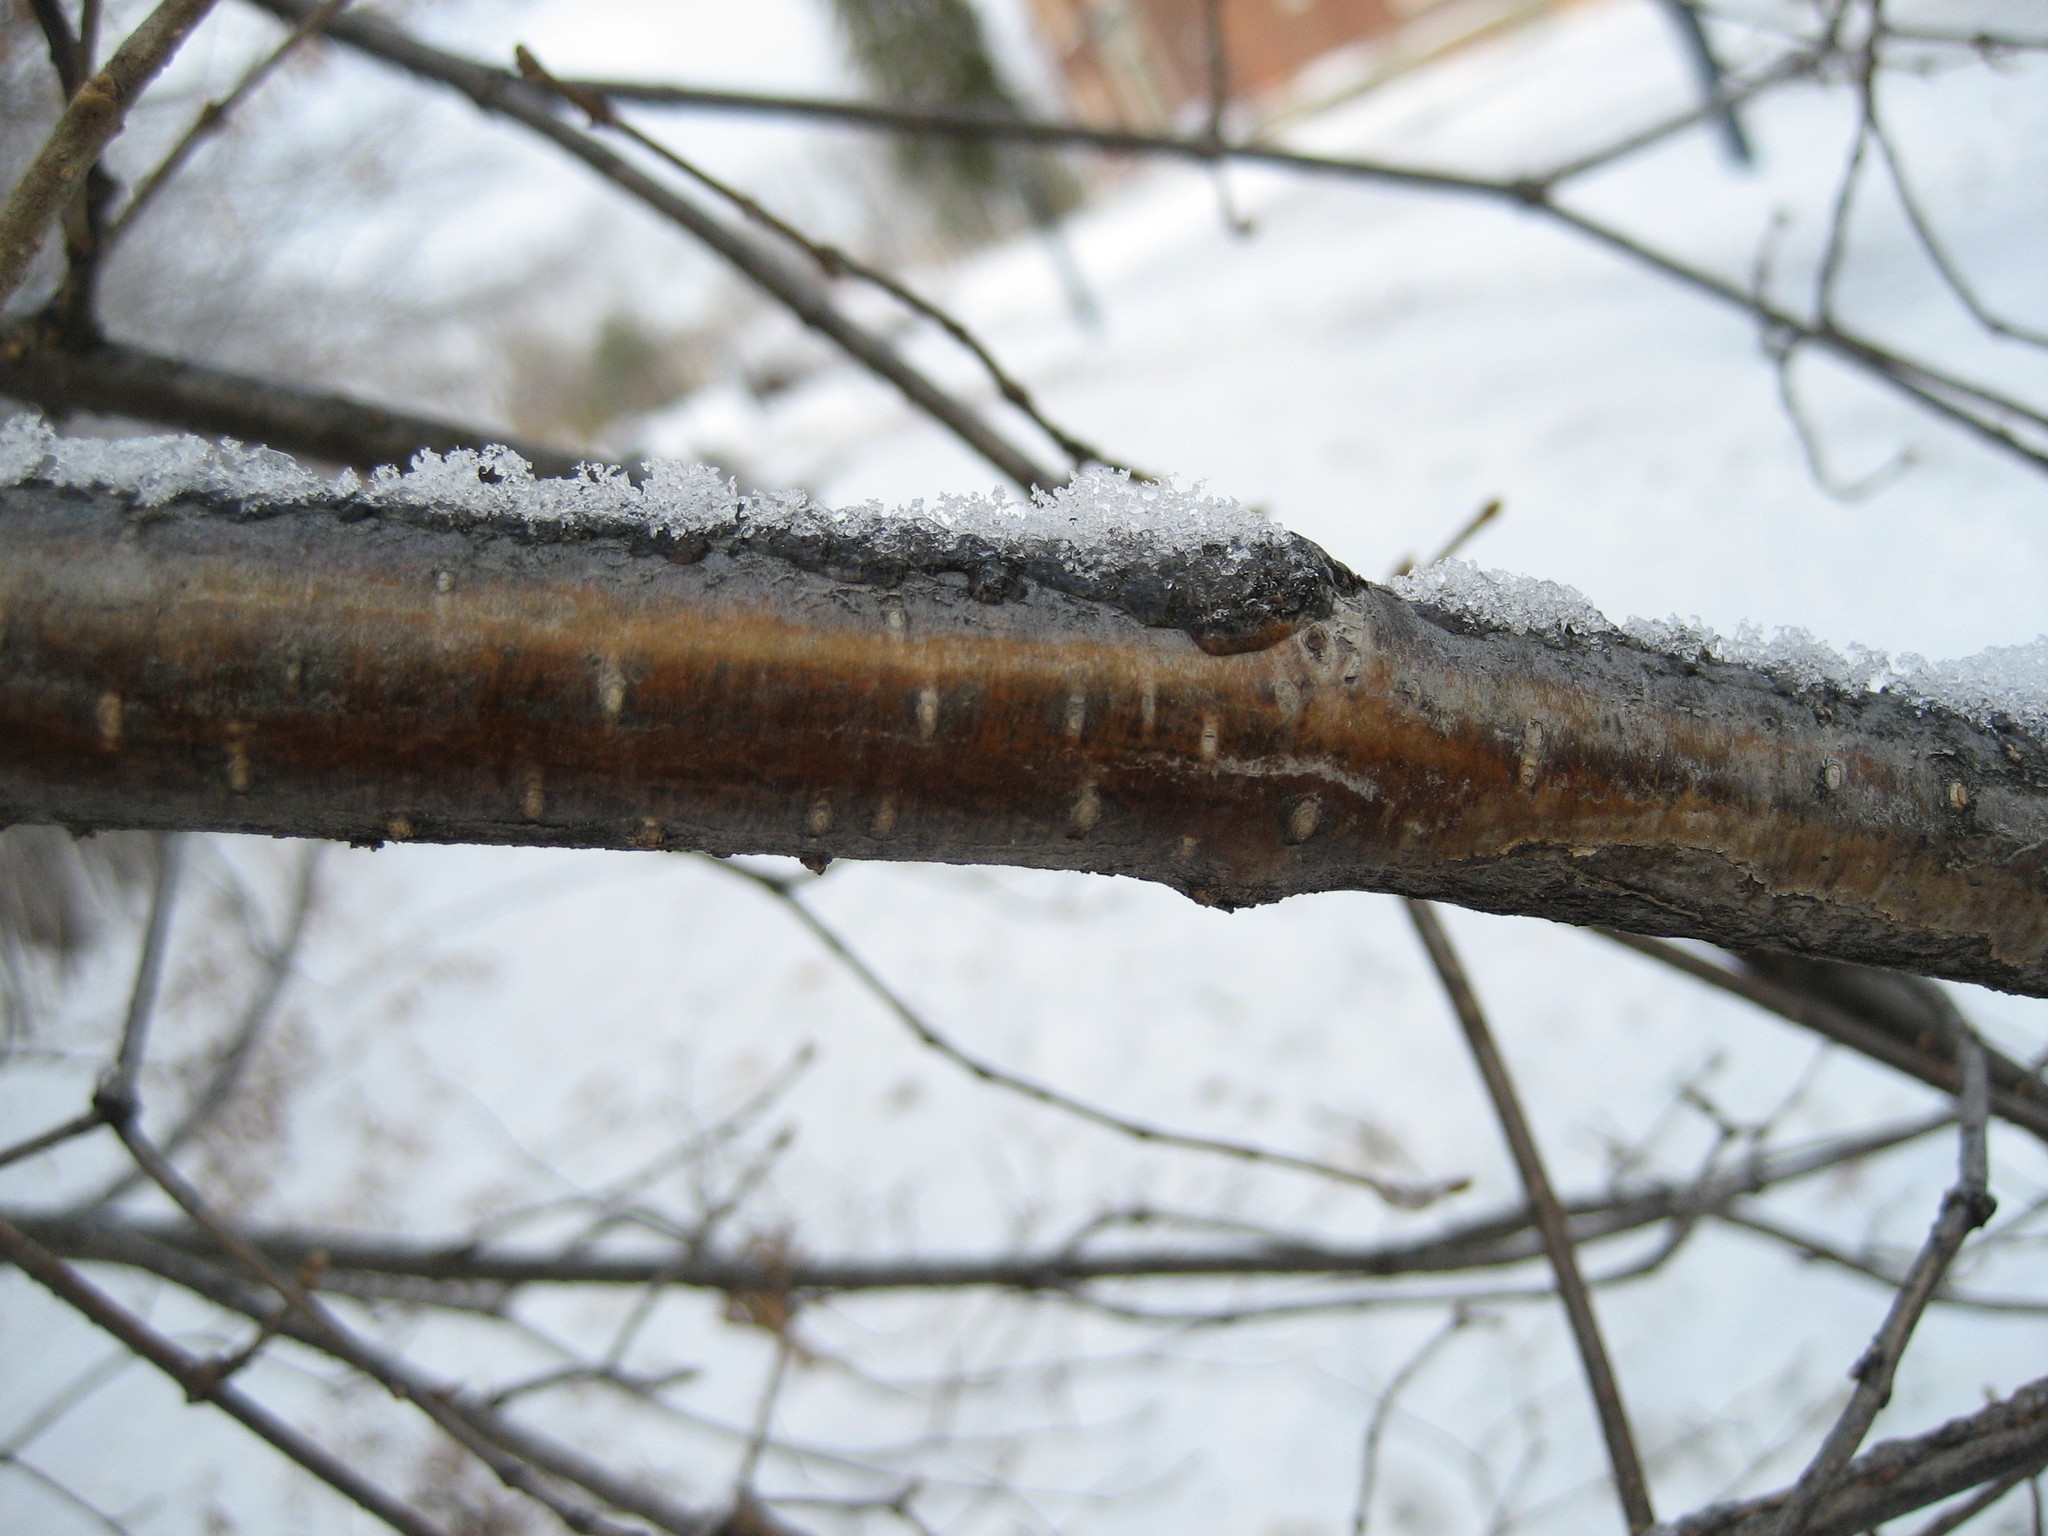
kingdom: Plantae
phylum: Tracheophyta
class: Magnoliopsida
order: Lamiales
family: Oleaceae
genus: Syringa
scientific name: Syringa reticulata
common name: Japanese tree lilac
